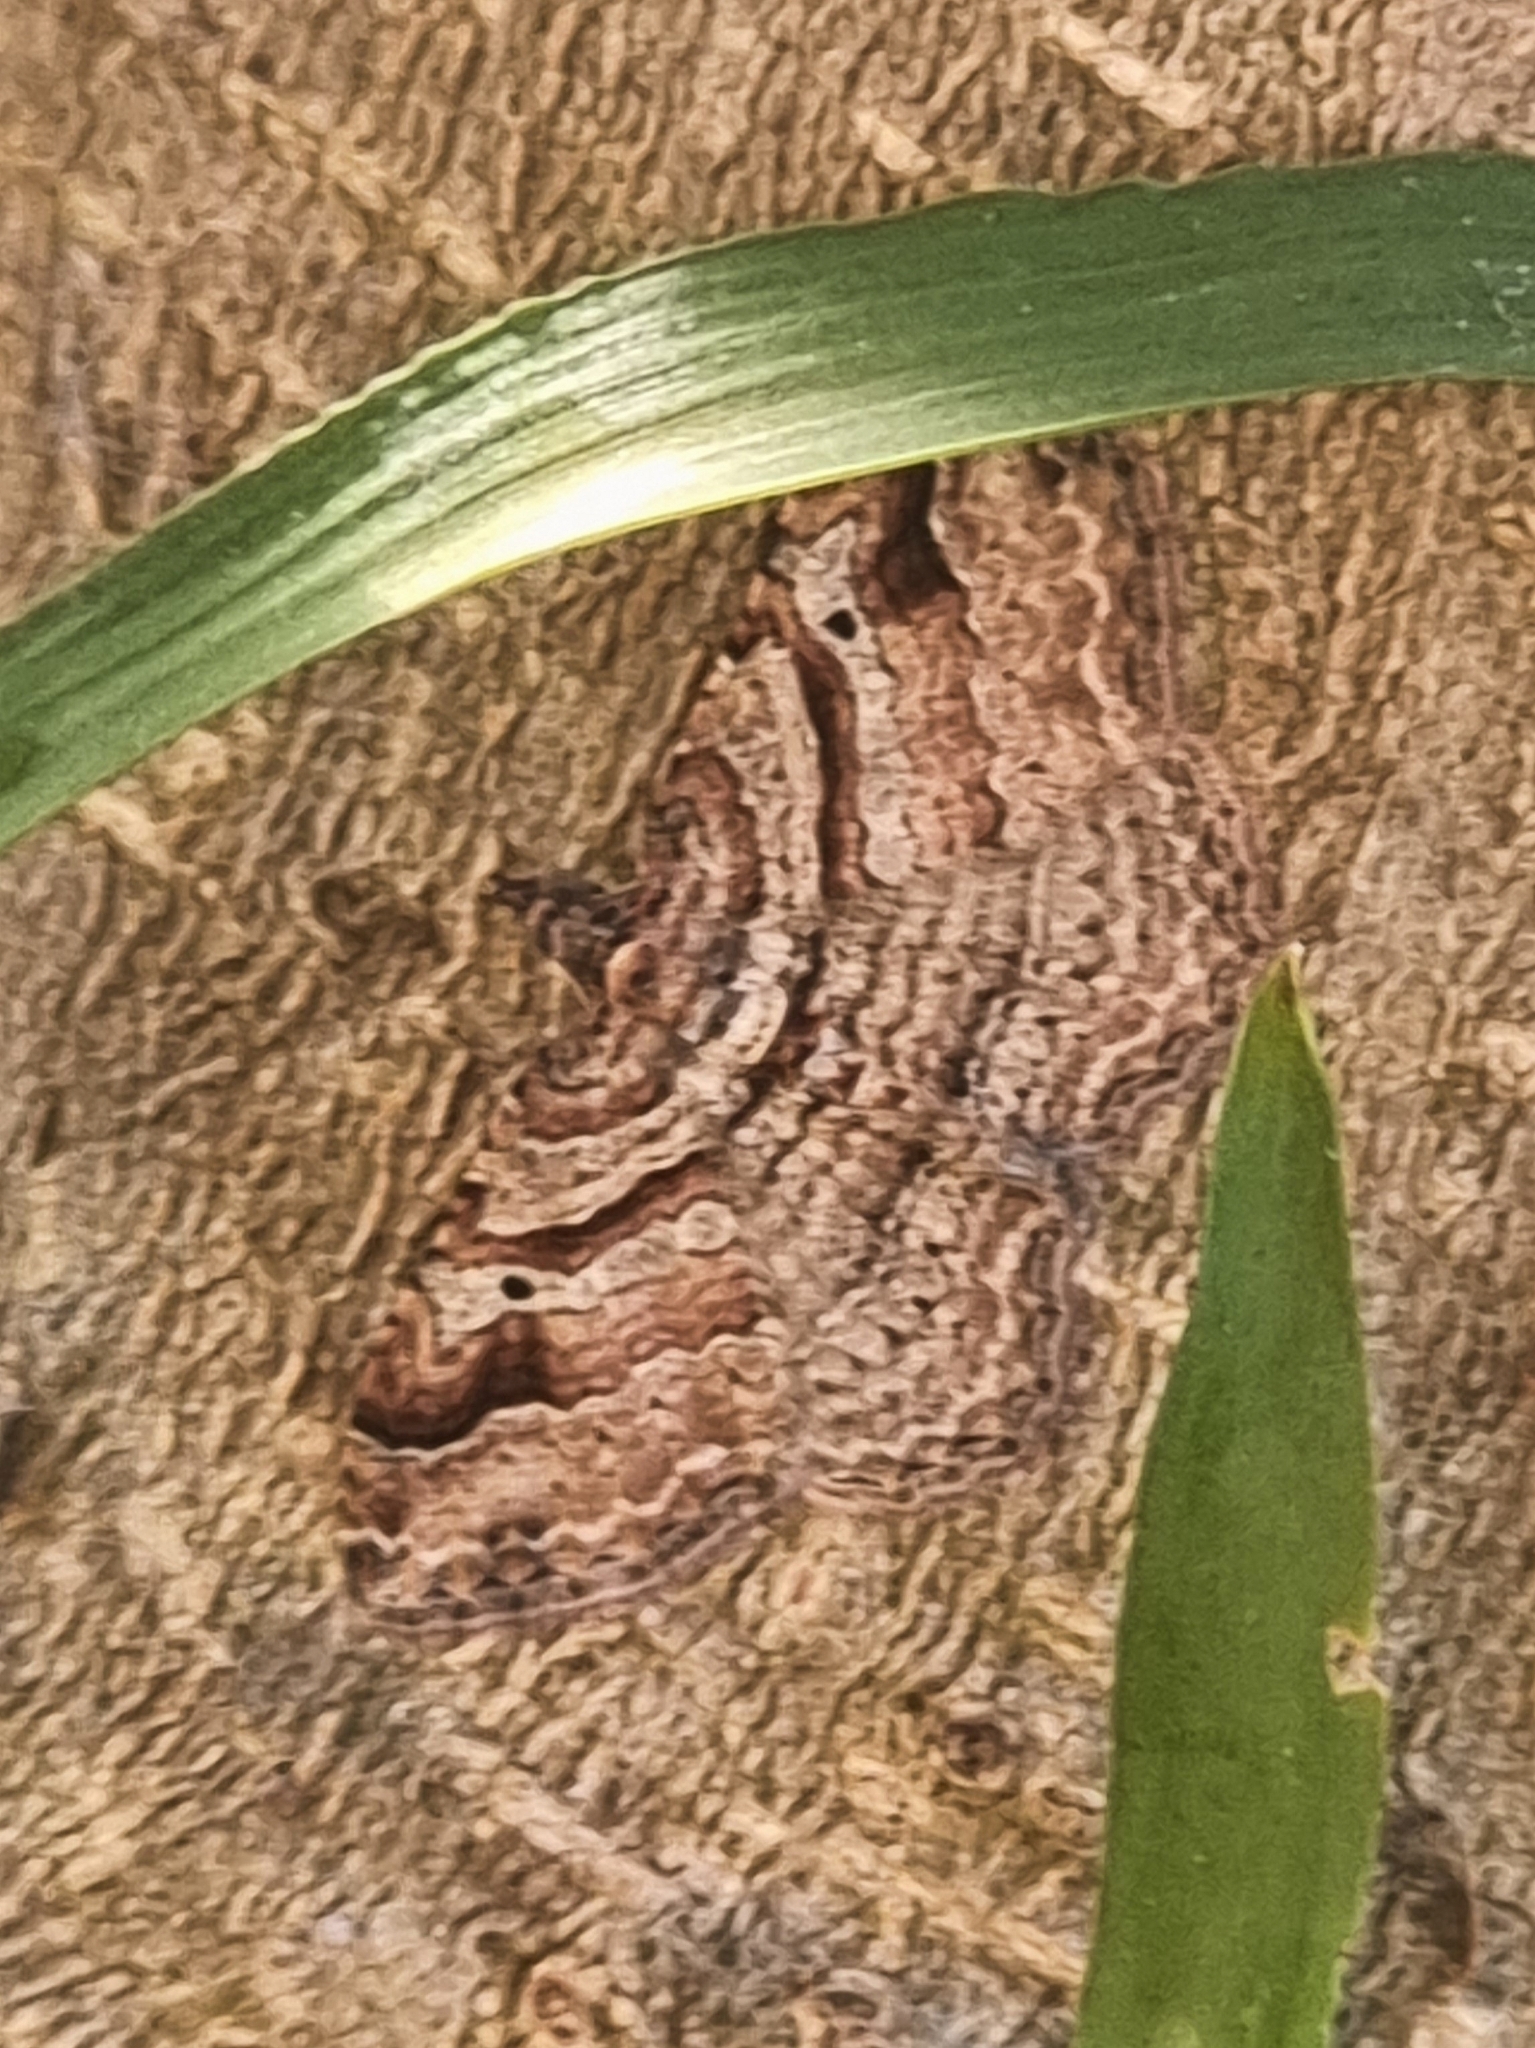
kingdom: Animalia
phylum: Arthropoda
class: Insecta
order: Lepidoptera
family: Geometridae
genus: Costaconvexa
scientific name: Costaconvexa centrostrigaria
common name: Bent-line carpet
